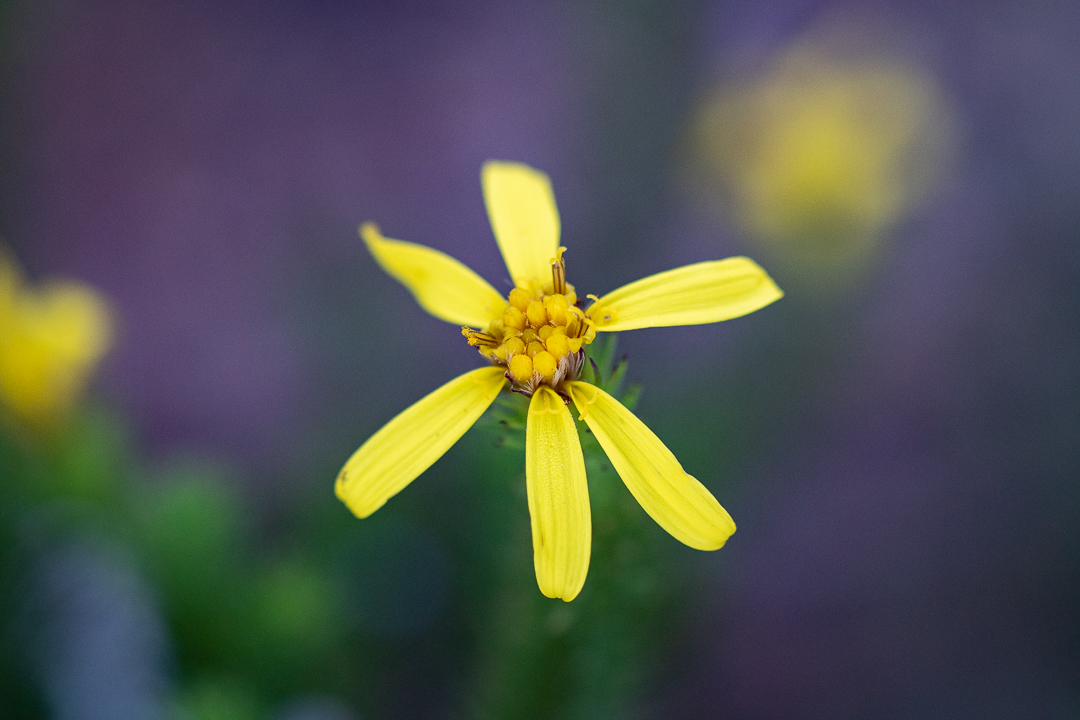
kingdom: Plantae
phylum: Tracheophyta
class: Magnoliopsida
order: Asterales
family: Asteraceae
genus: Senecio
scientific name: Senecio pinifolius
